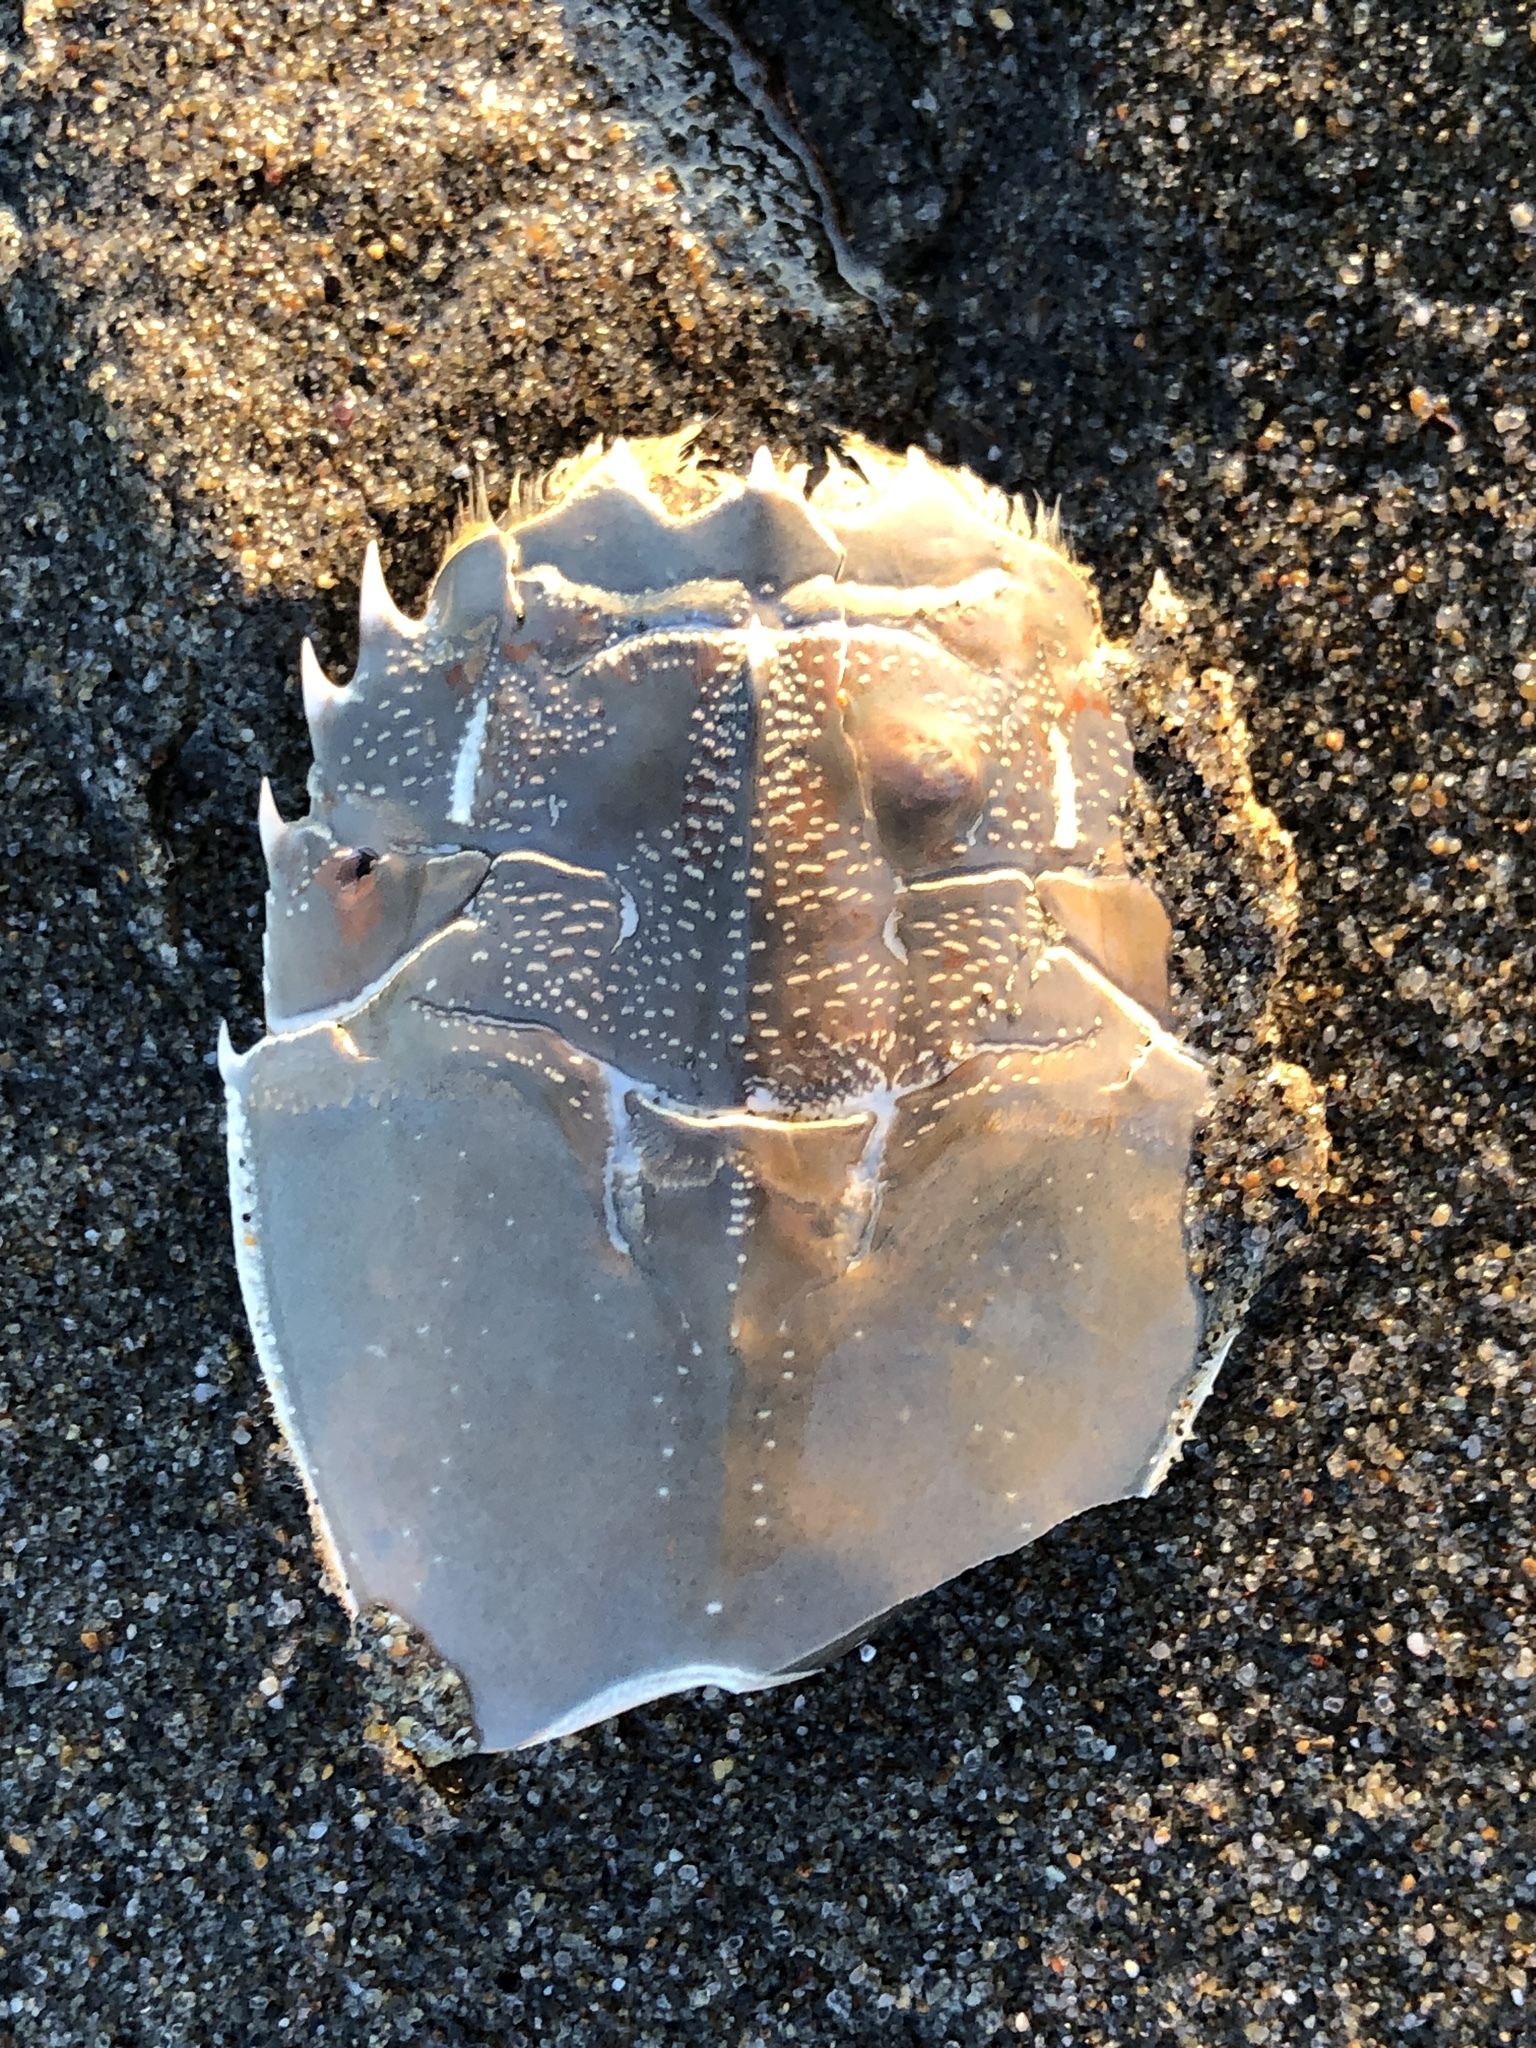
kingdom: Animalia
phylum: Arthropoda
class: Malacostraca
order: Decapoda
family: Blepharipodidae
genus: Blepharipoda
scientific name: Blepharipoda occidentalis
